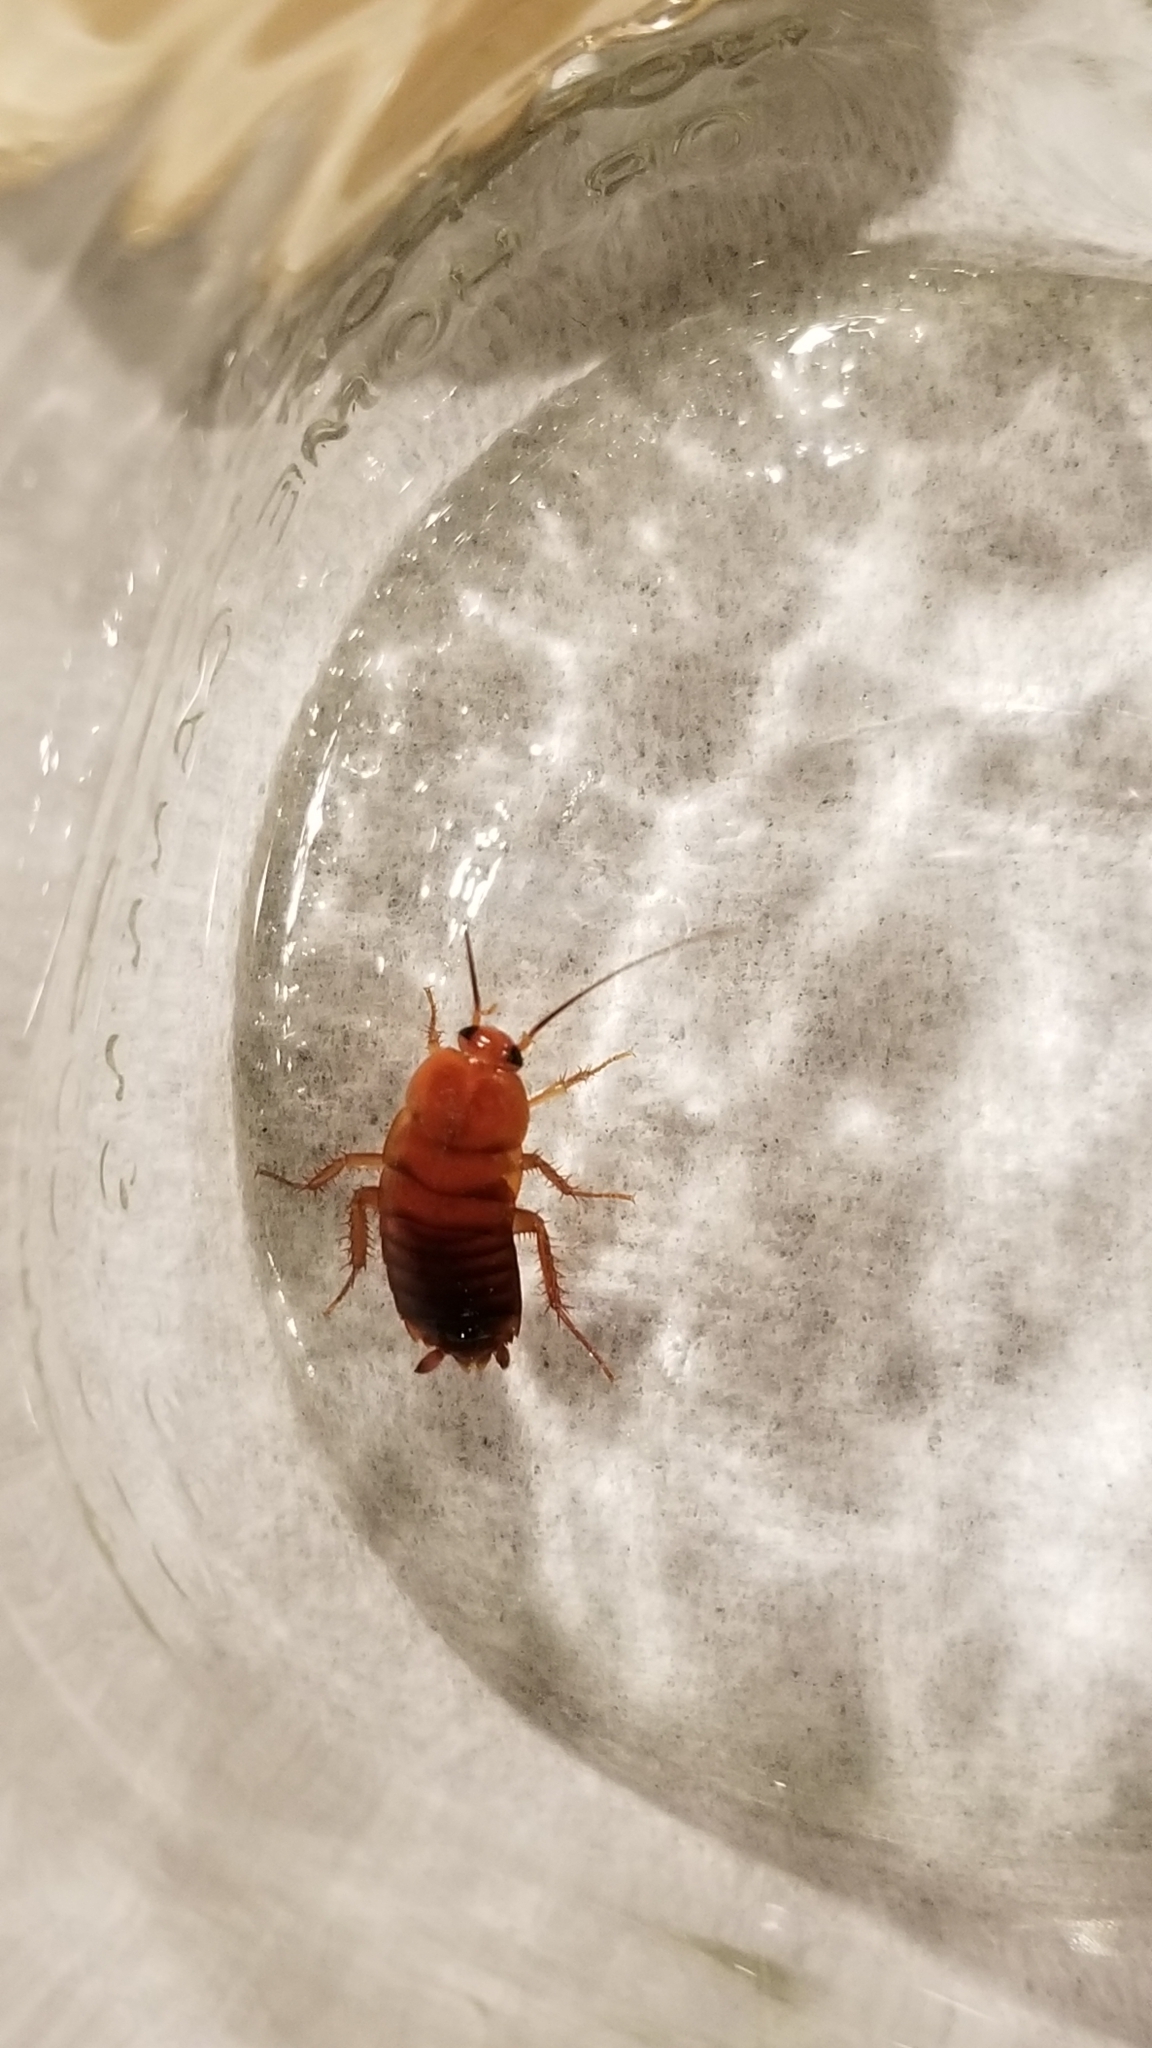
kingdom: Animalia
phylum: Arthropoda
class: Insecta
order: Blattodea
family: Blattidae
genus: Periplaneta
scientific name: Periplaneta lateralis
